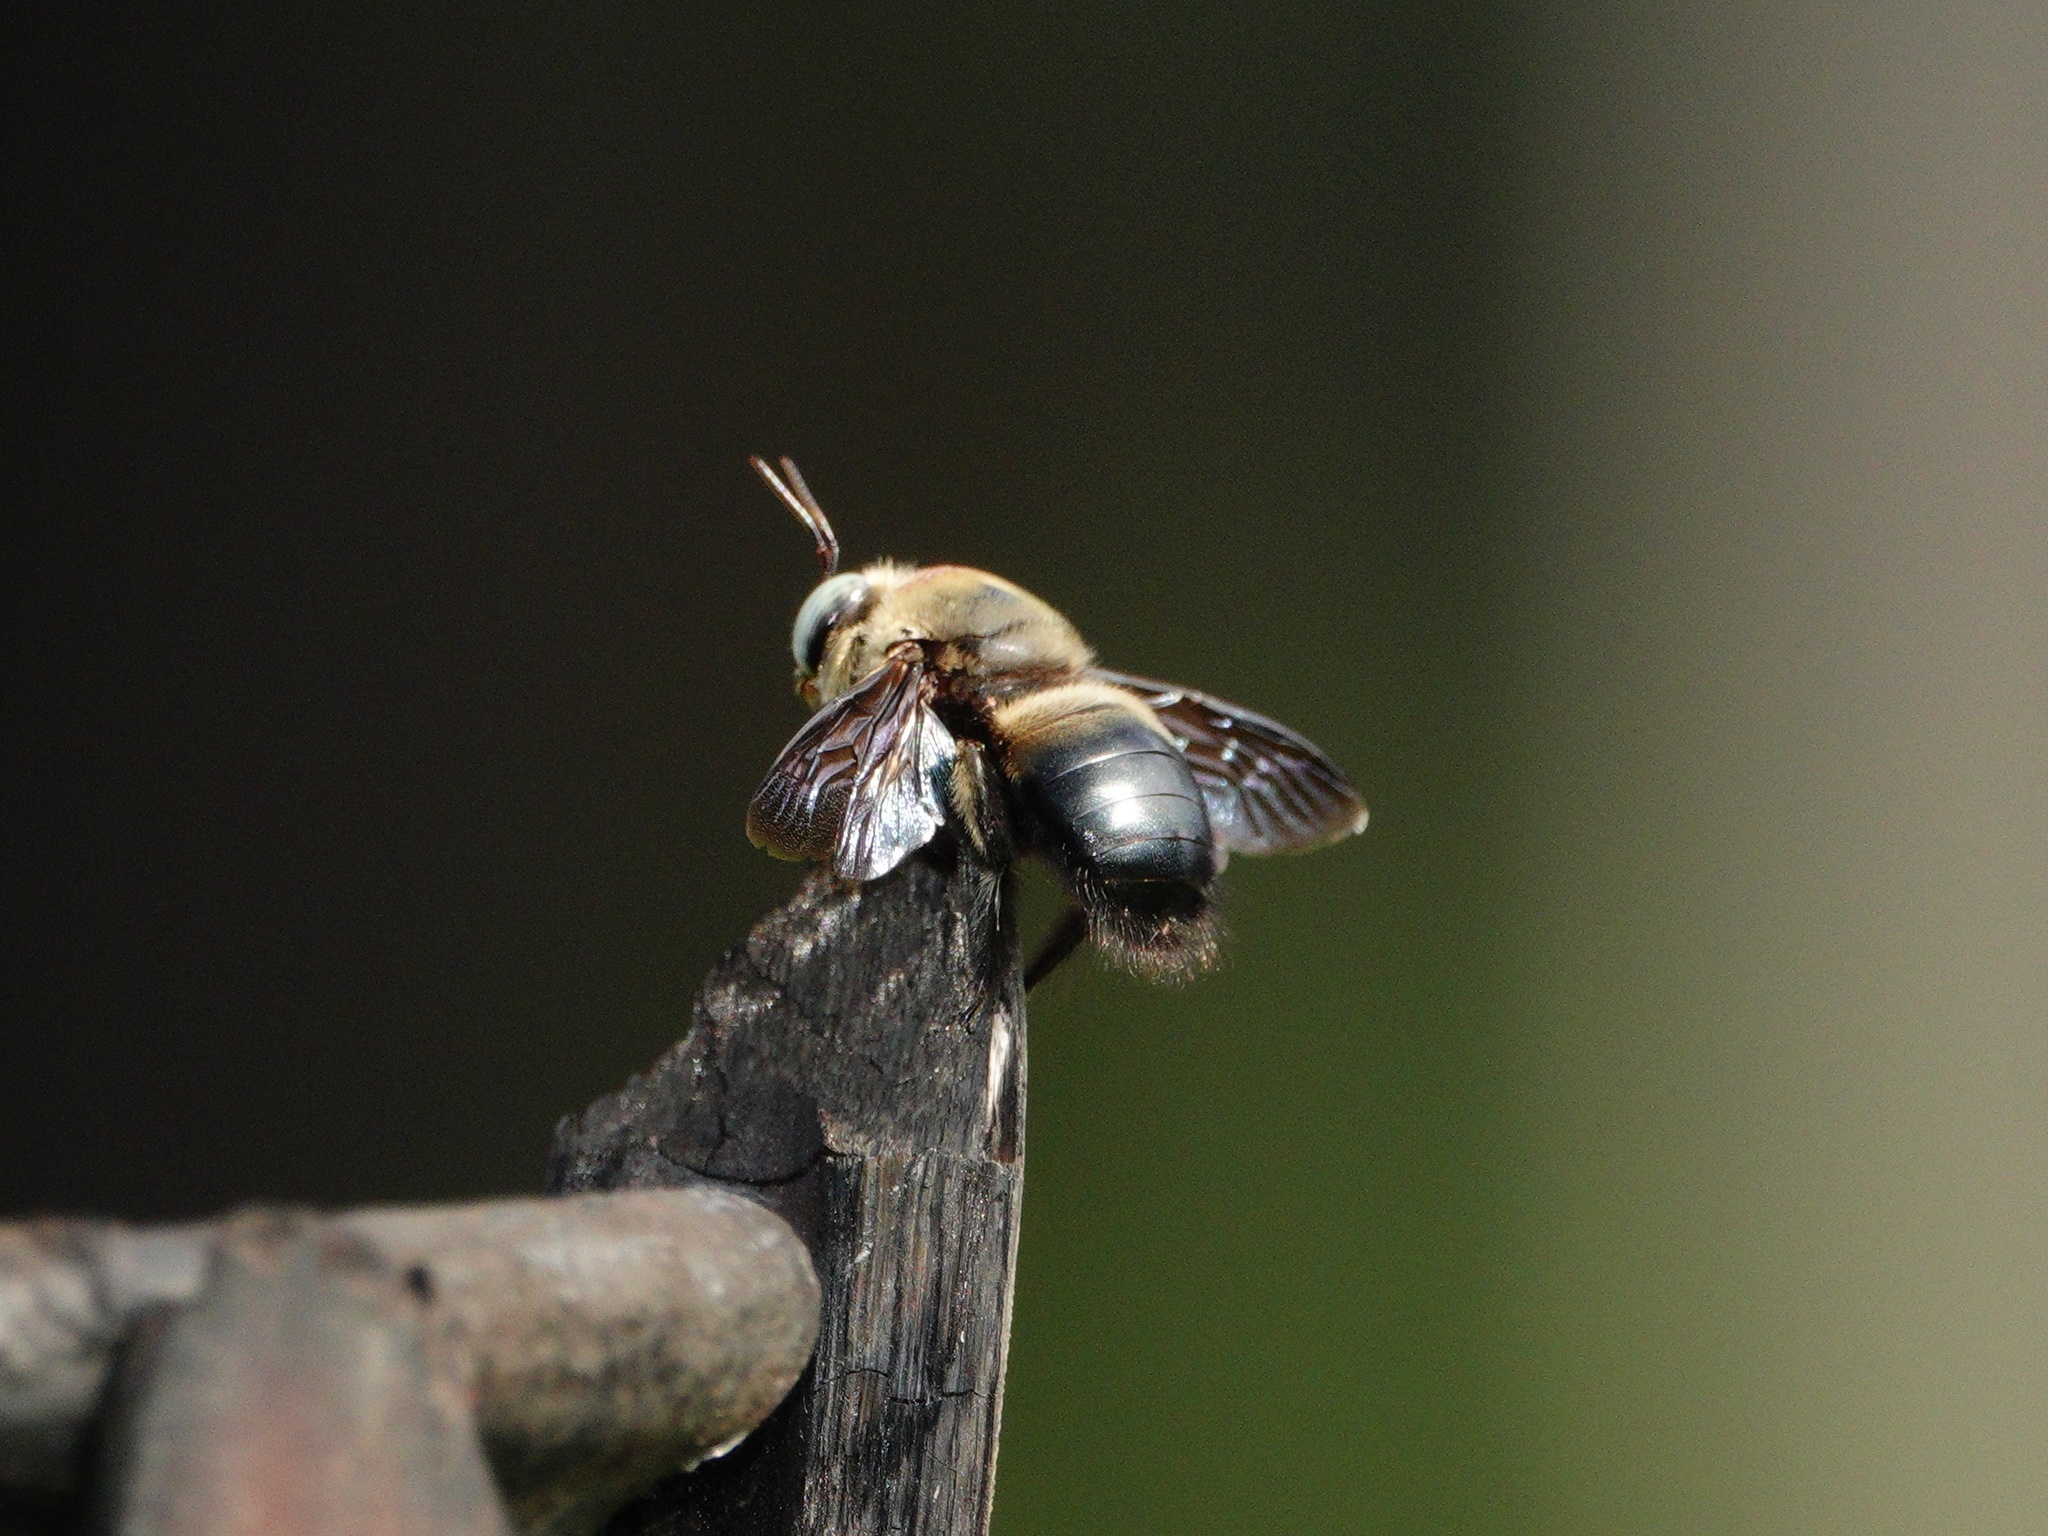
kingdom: Animalia
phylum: Arthropoda
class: Insecta
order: Hymenoptera
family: Apidae
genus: Xylocopa
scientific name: Xylocopa dejeanii
